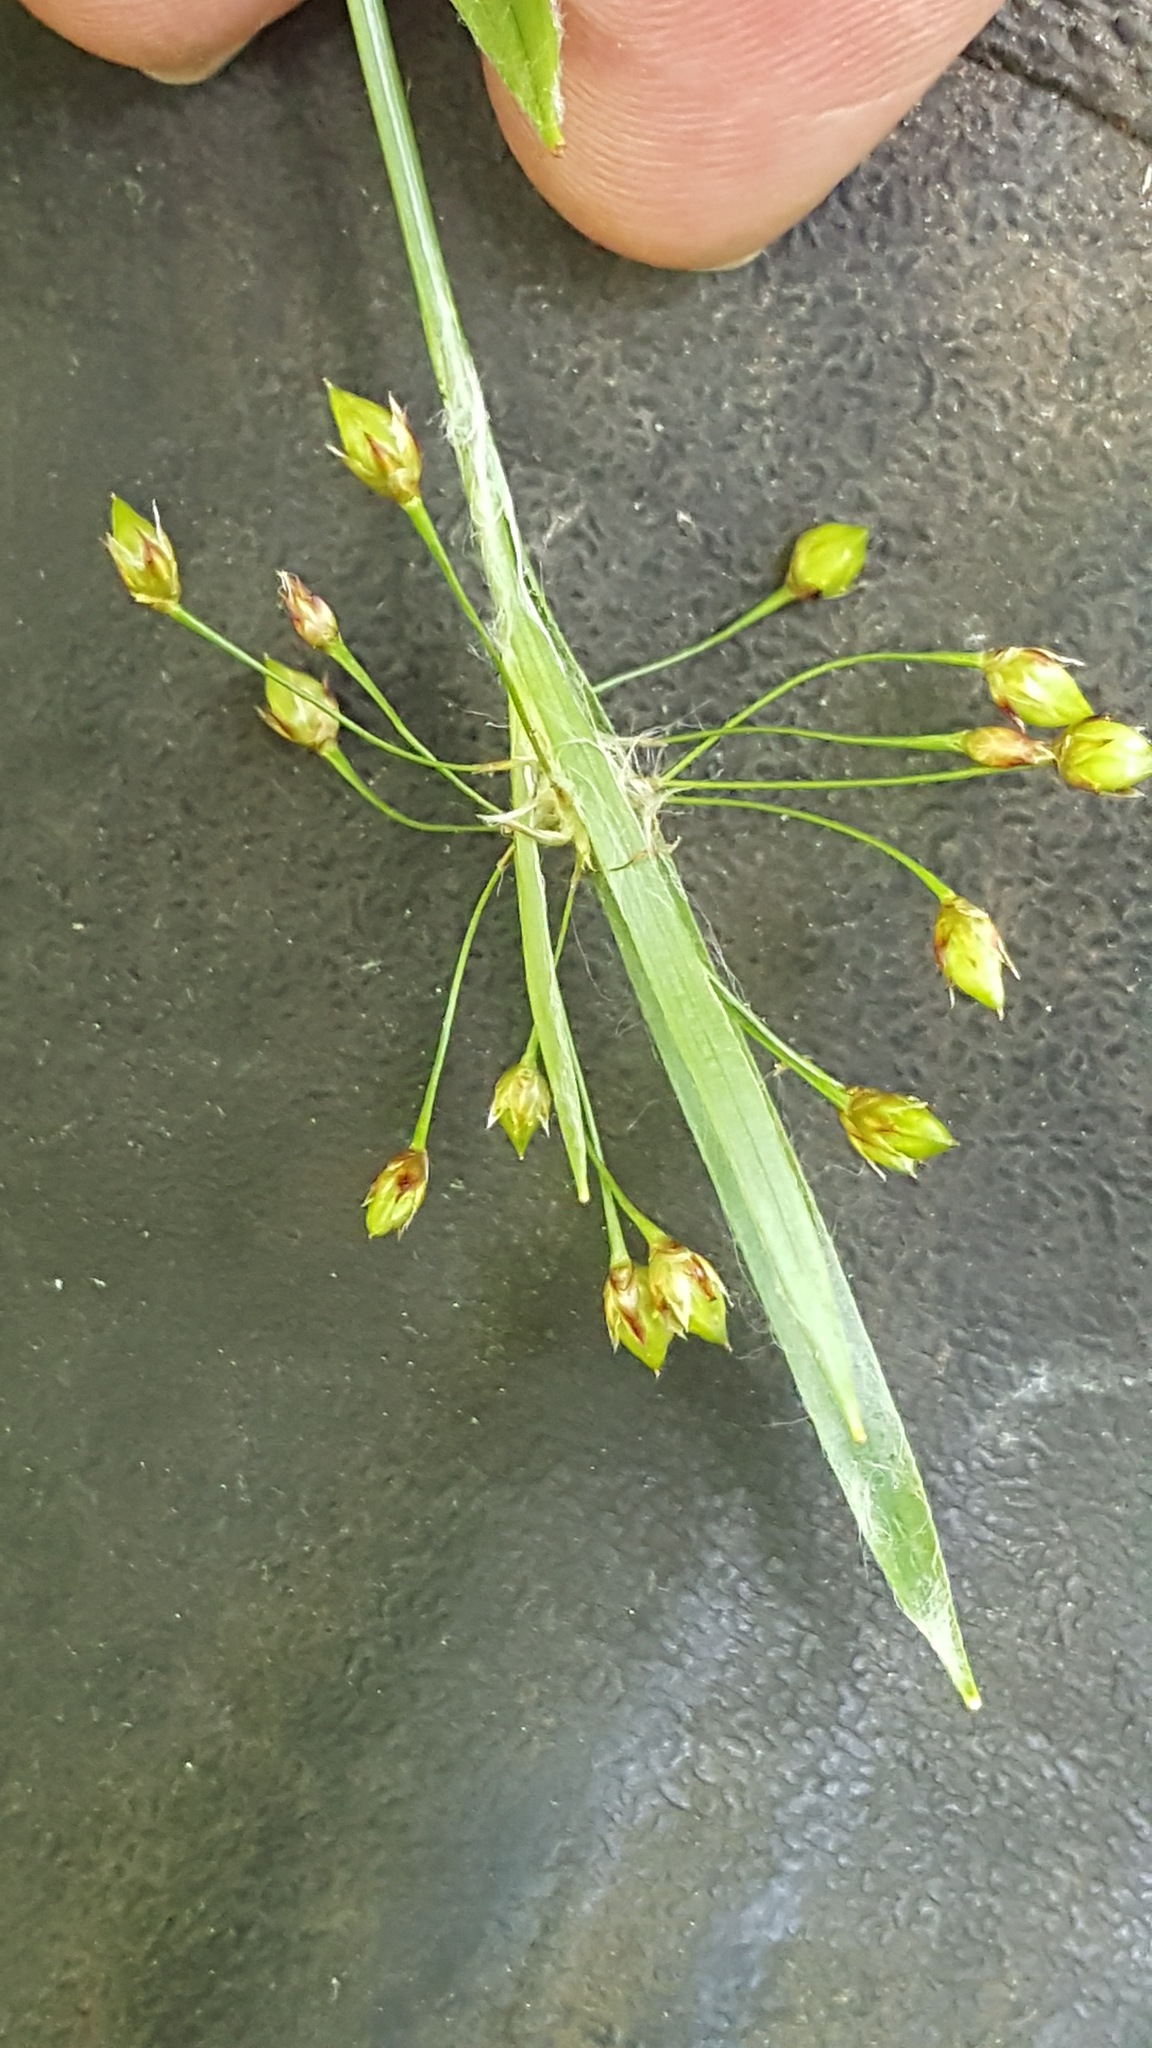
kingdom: Plantae
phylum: Tracheophyta
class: Liliopsida
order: Poales
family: Juncaceae
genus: Luzula
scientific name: Luzula acuminata
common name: Hairy woodrush
